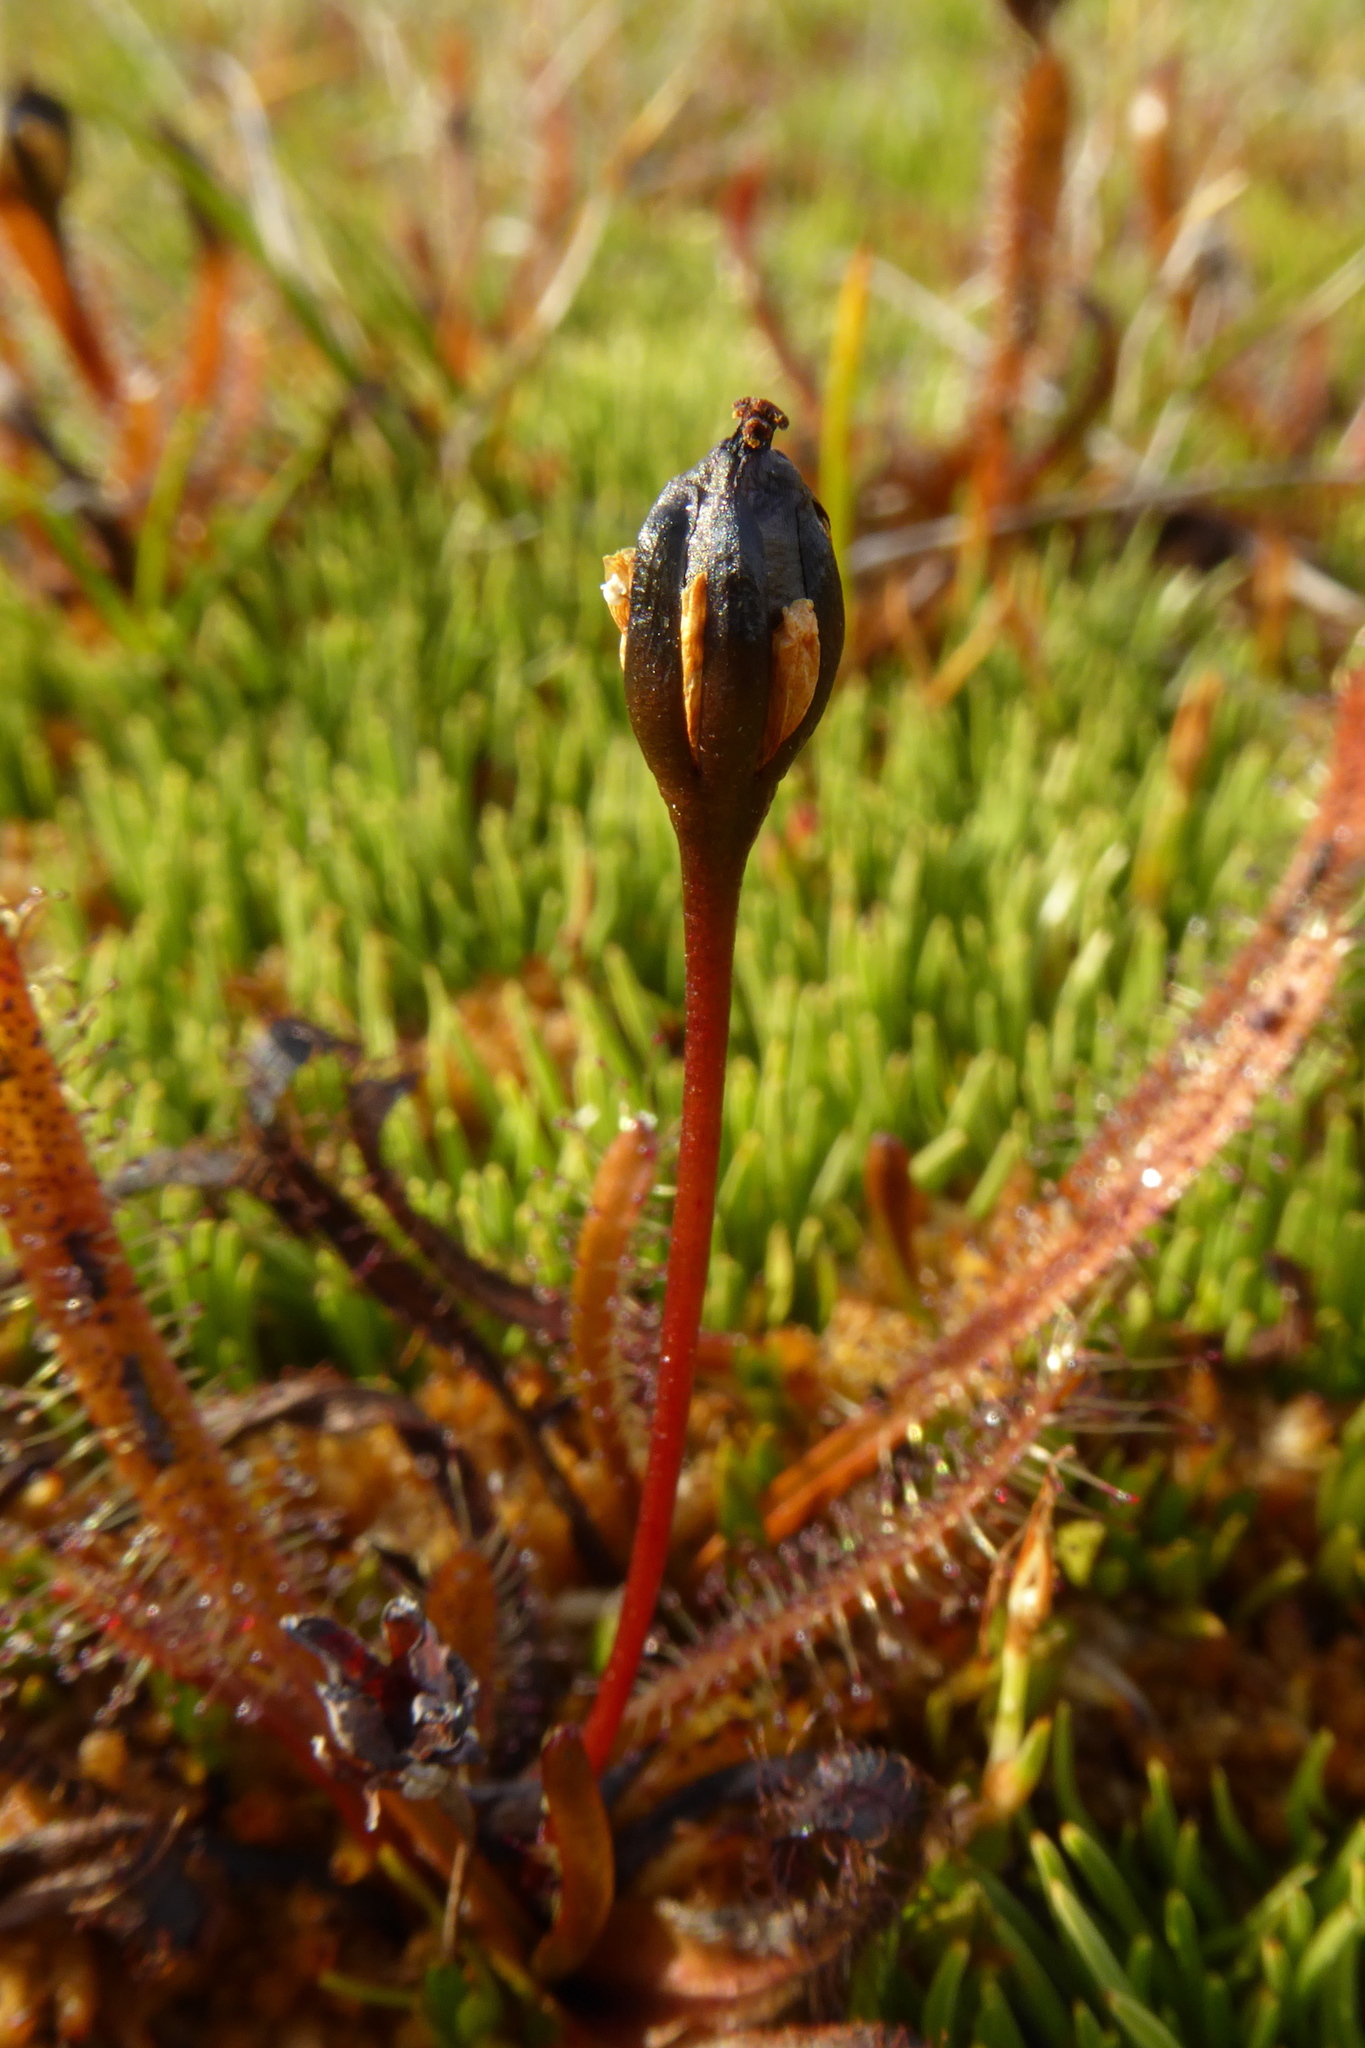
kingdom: Plantae
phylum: Tracheophyta
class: Magnoliopsida
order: Caryophyllales
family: Droseraceae
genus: Drosera
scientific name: Drosera arcturi
